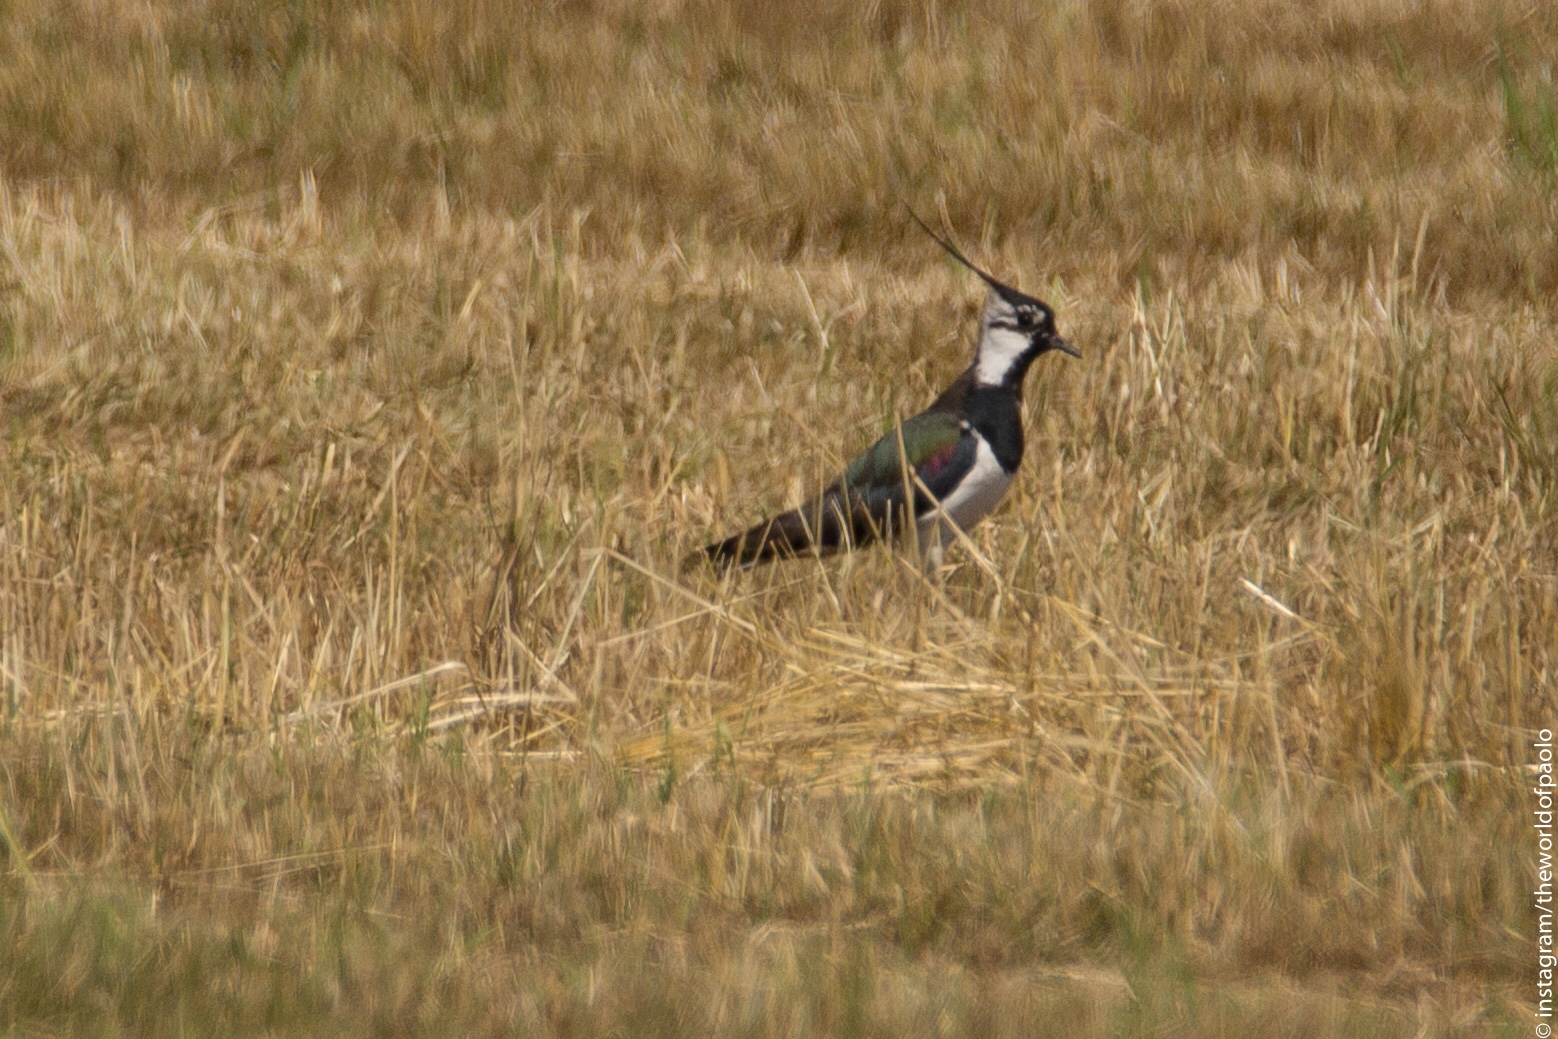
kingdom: Animalia
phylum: Chordata
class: Aves
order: Charadriiformes
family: Charadriidae
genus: Vanellus
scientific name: Vanellus vanellus
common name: Northern lapwing
